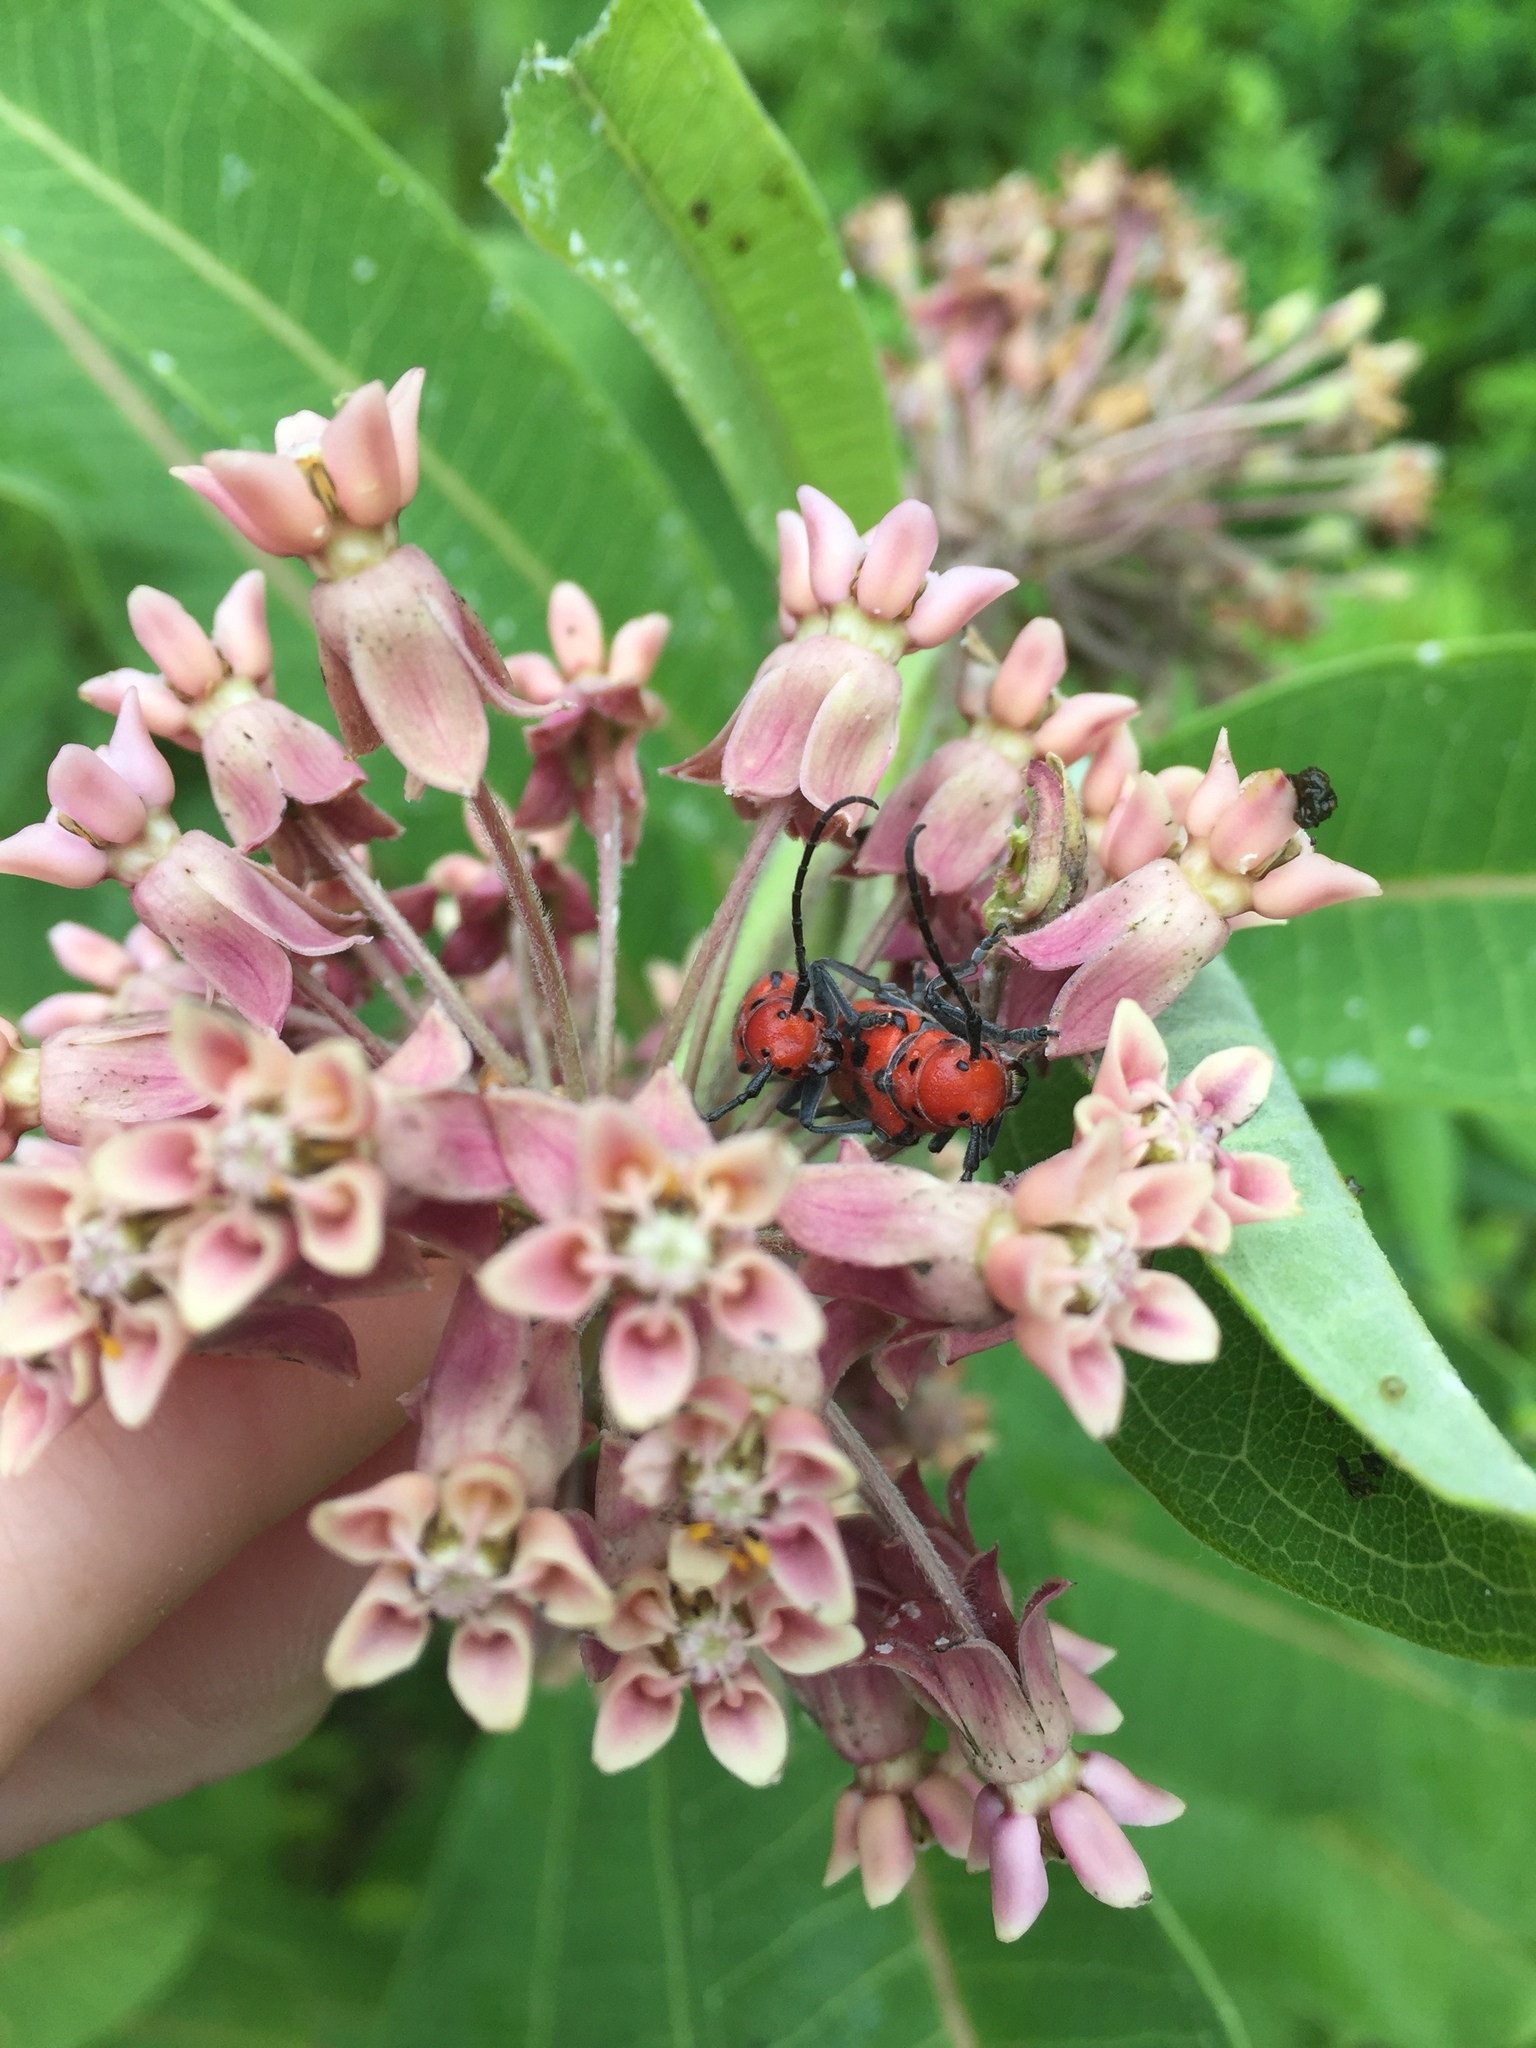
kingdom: Animalia
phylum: Arthropoda
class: Insecta
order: Coleoptera
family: Cerambycidae
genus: Tetraopes
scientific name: Tetraopes tetrophthalmus
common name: Red milkweed beetle
